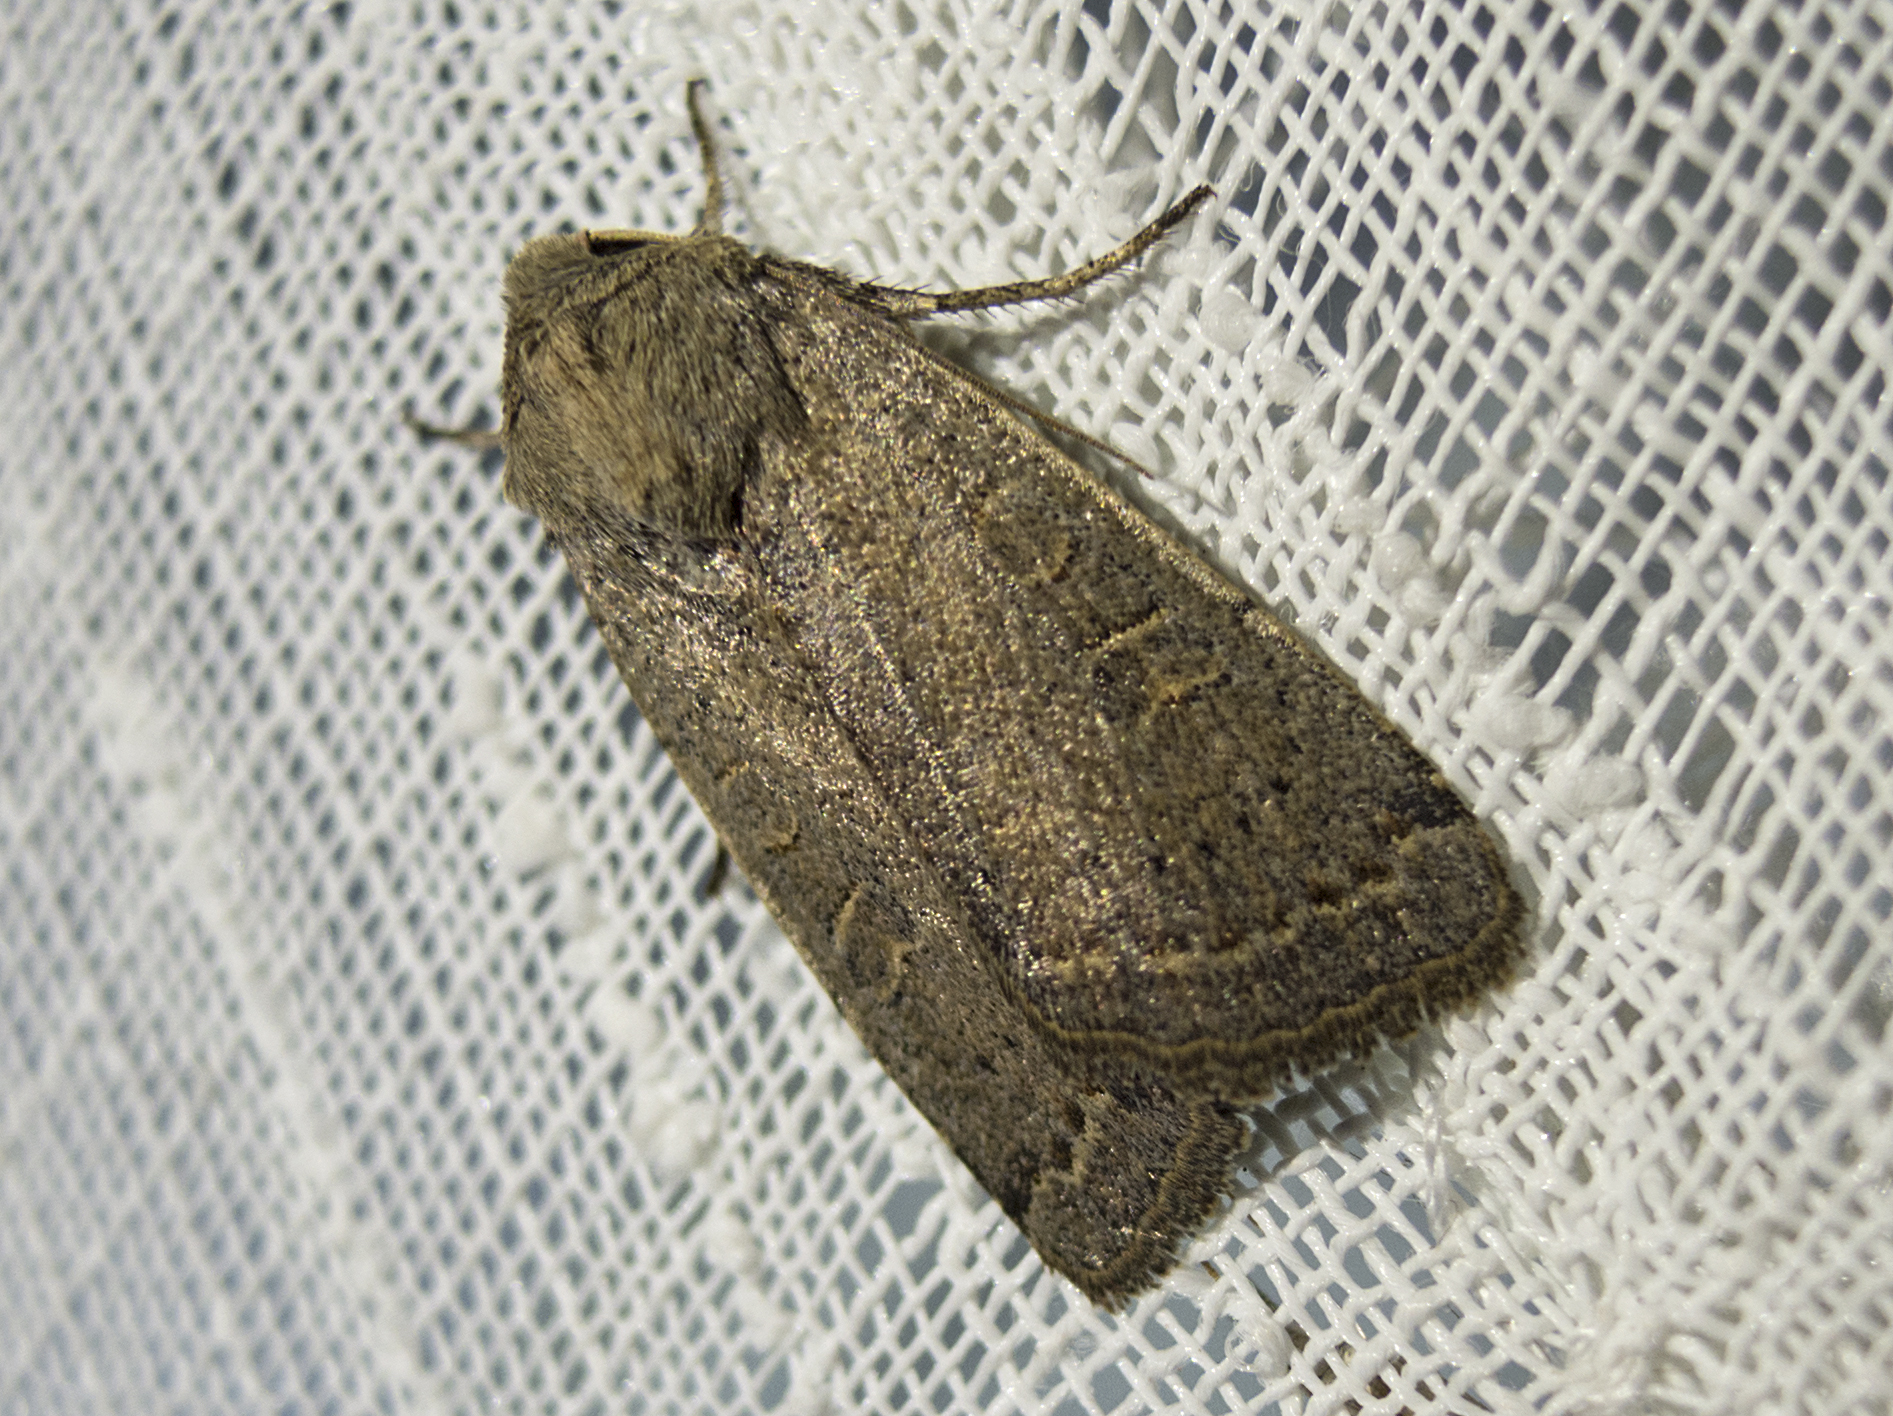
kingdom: Animalia
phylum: Arthropoda
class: Insecta
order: Lepidoptera
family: Noctuidae
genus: Xestia
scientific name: Xestia cohaesa
